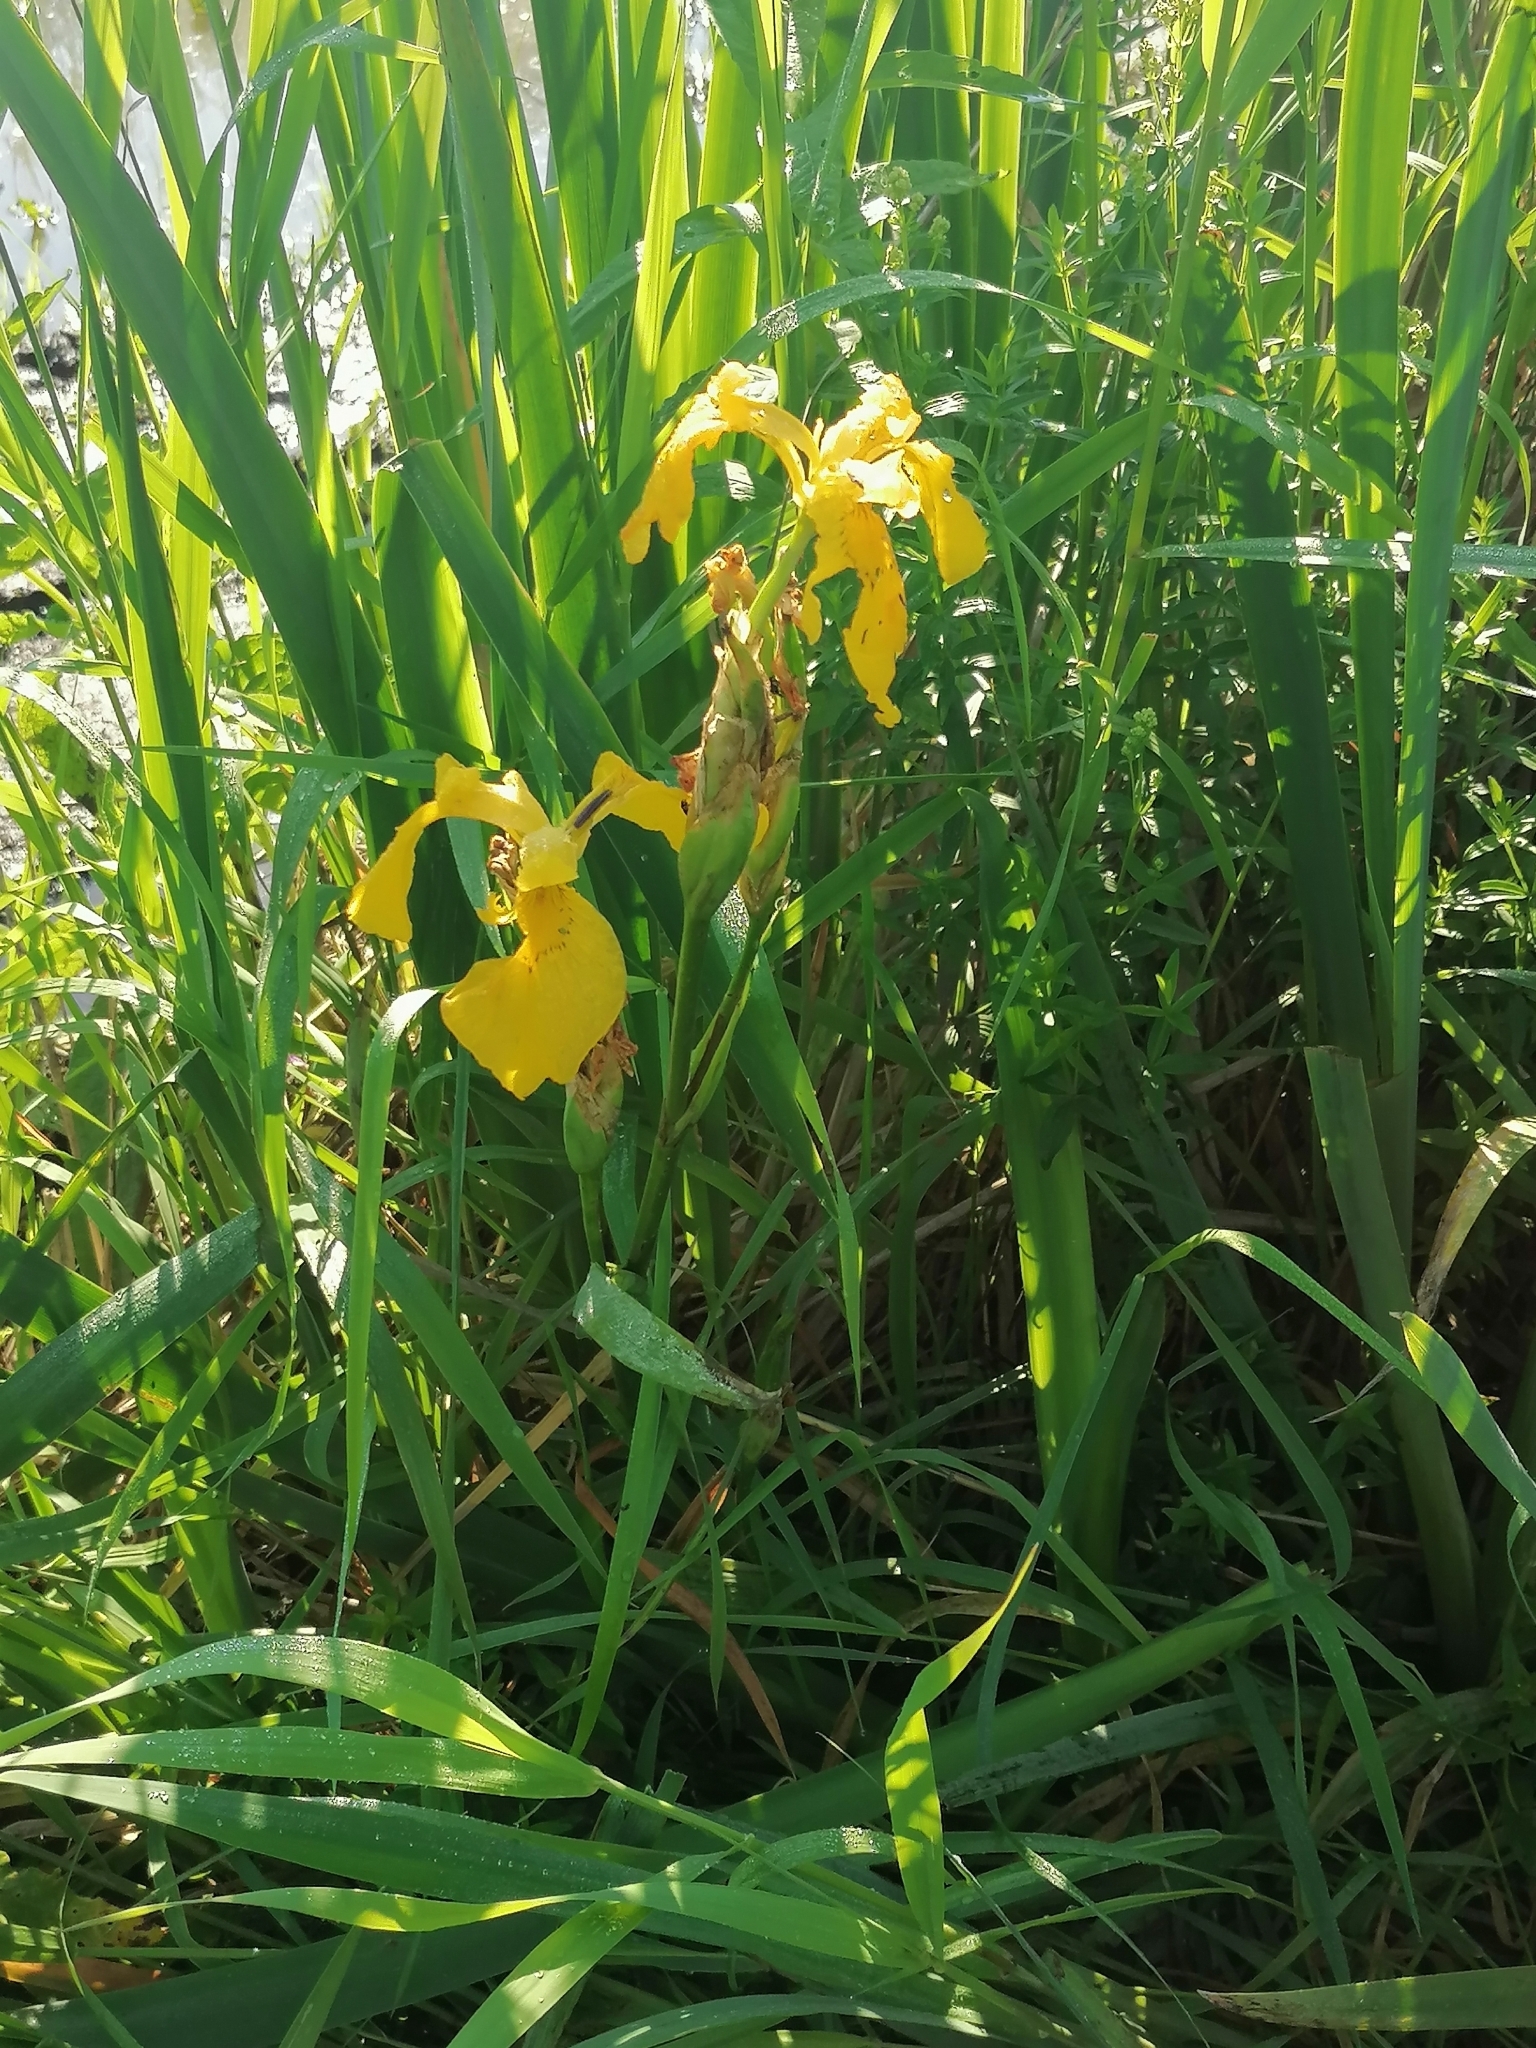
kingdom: Plantae
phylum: Tracheophyta
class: Liliopsida
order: Asparagales
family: Iridaceae
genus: Iris
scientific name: Iris pseudacorus
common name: Yellow flag
